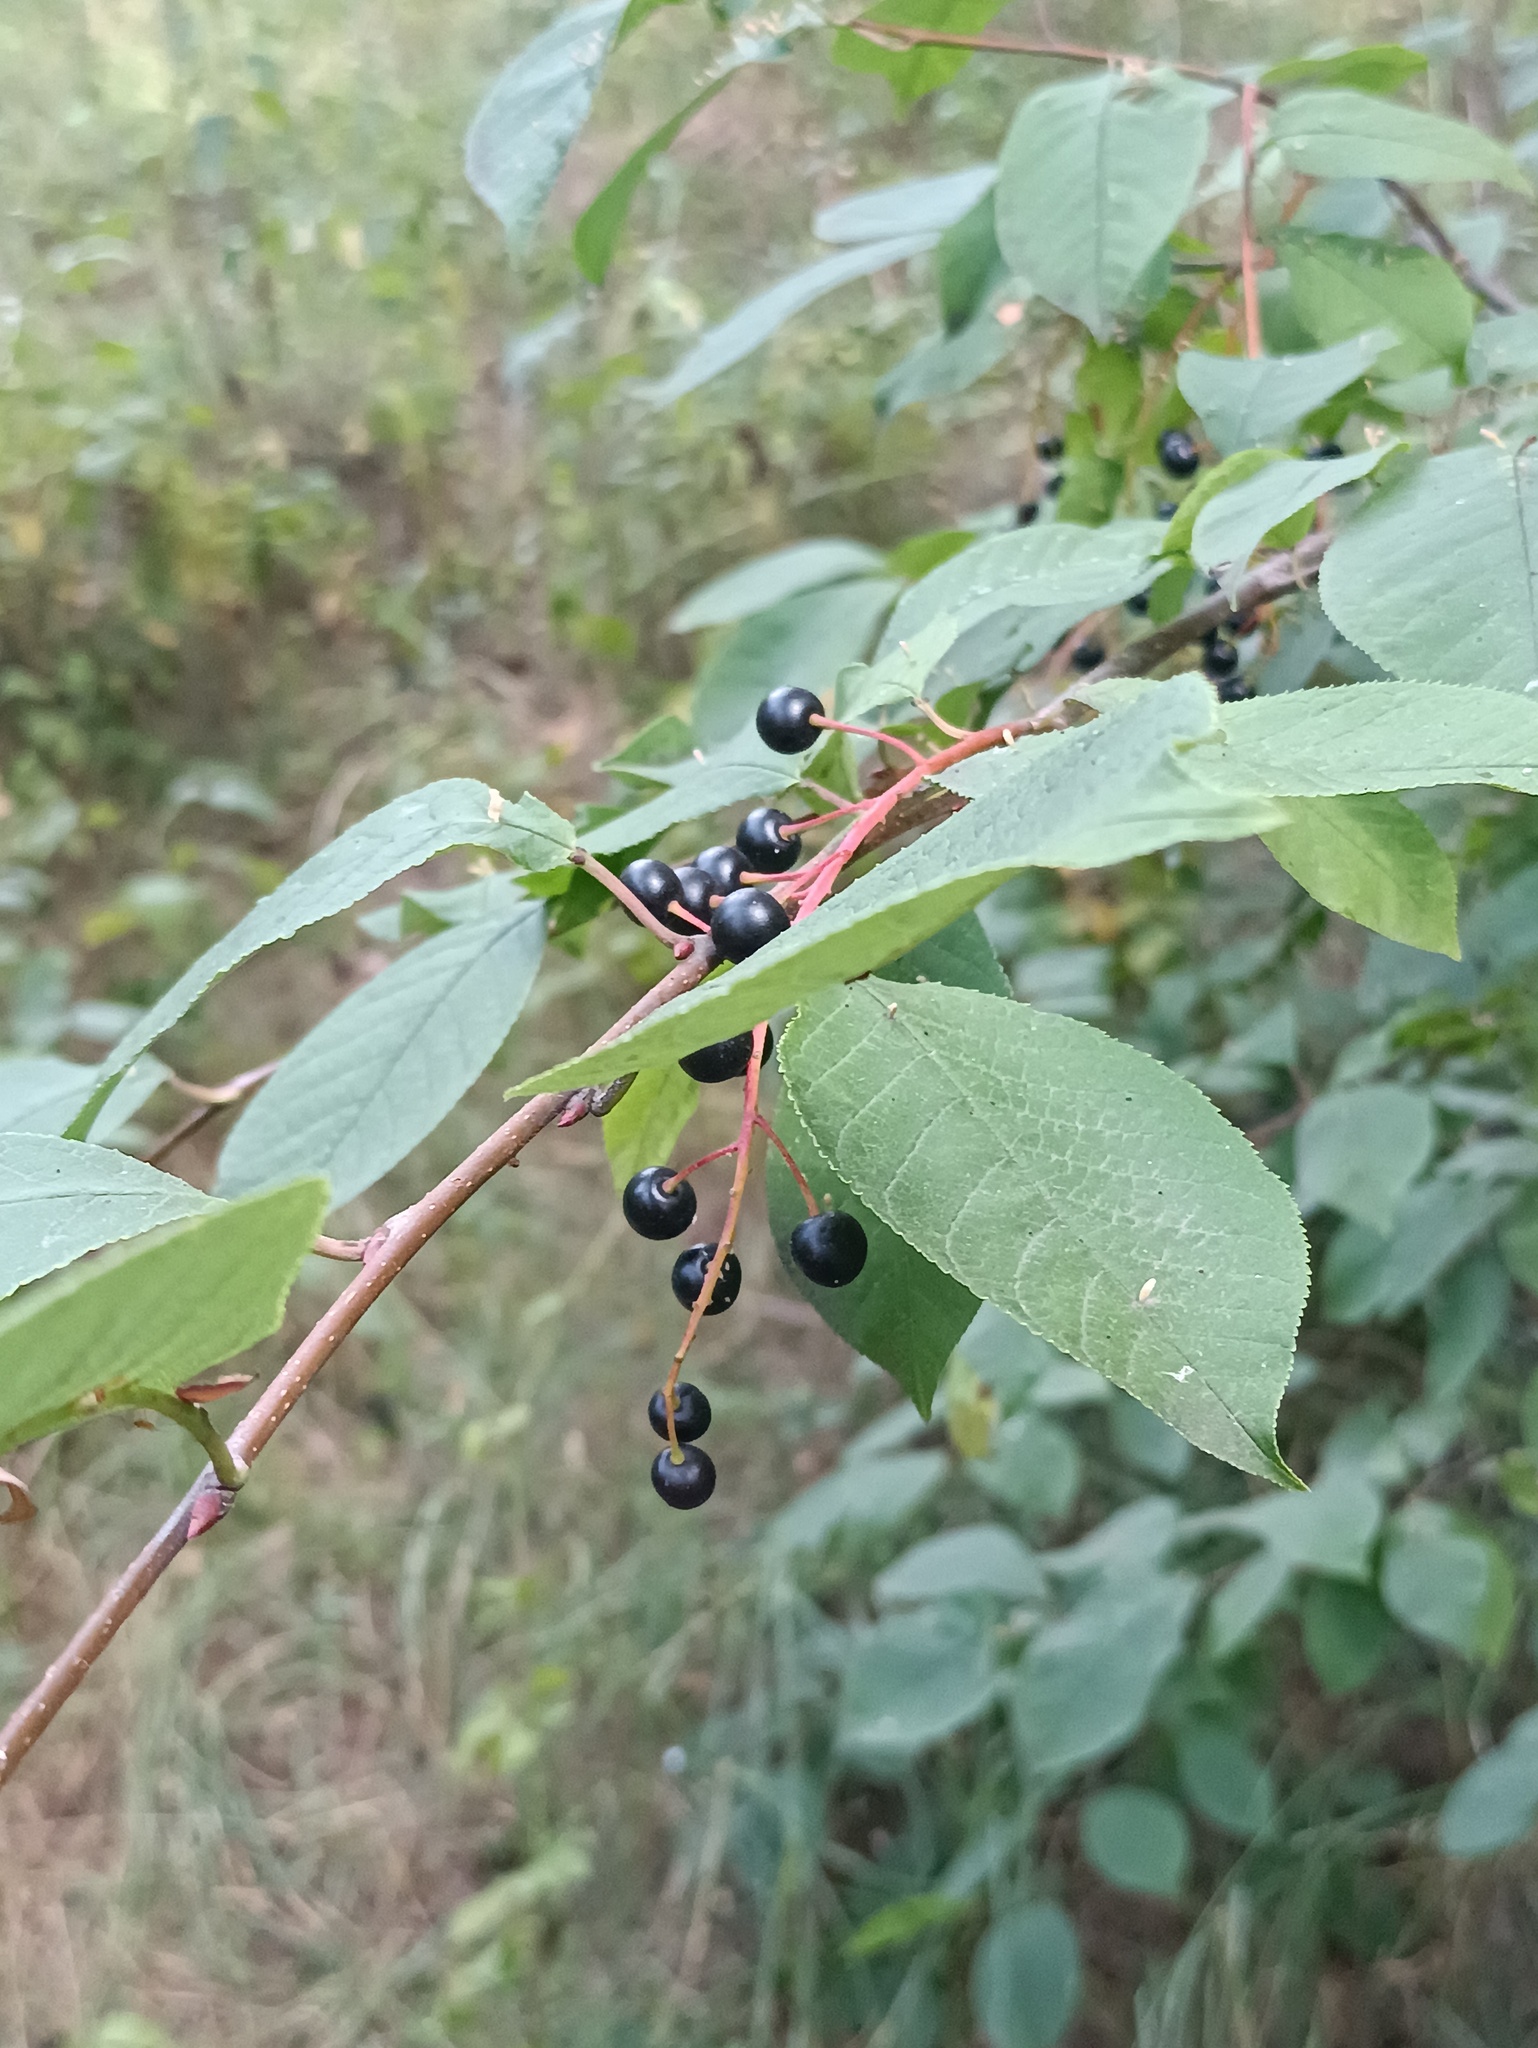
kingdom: Plantae
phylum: Tracheophyta
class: Magnoliopsida
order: Rosales
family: Rosaceae
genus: Prunus
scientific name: Prunus padus
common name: Bird cherry
